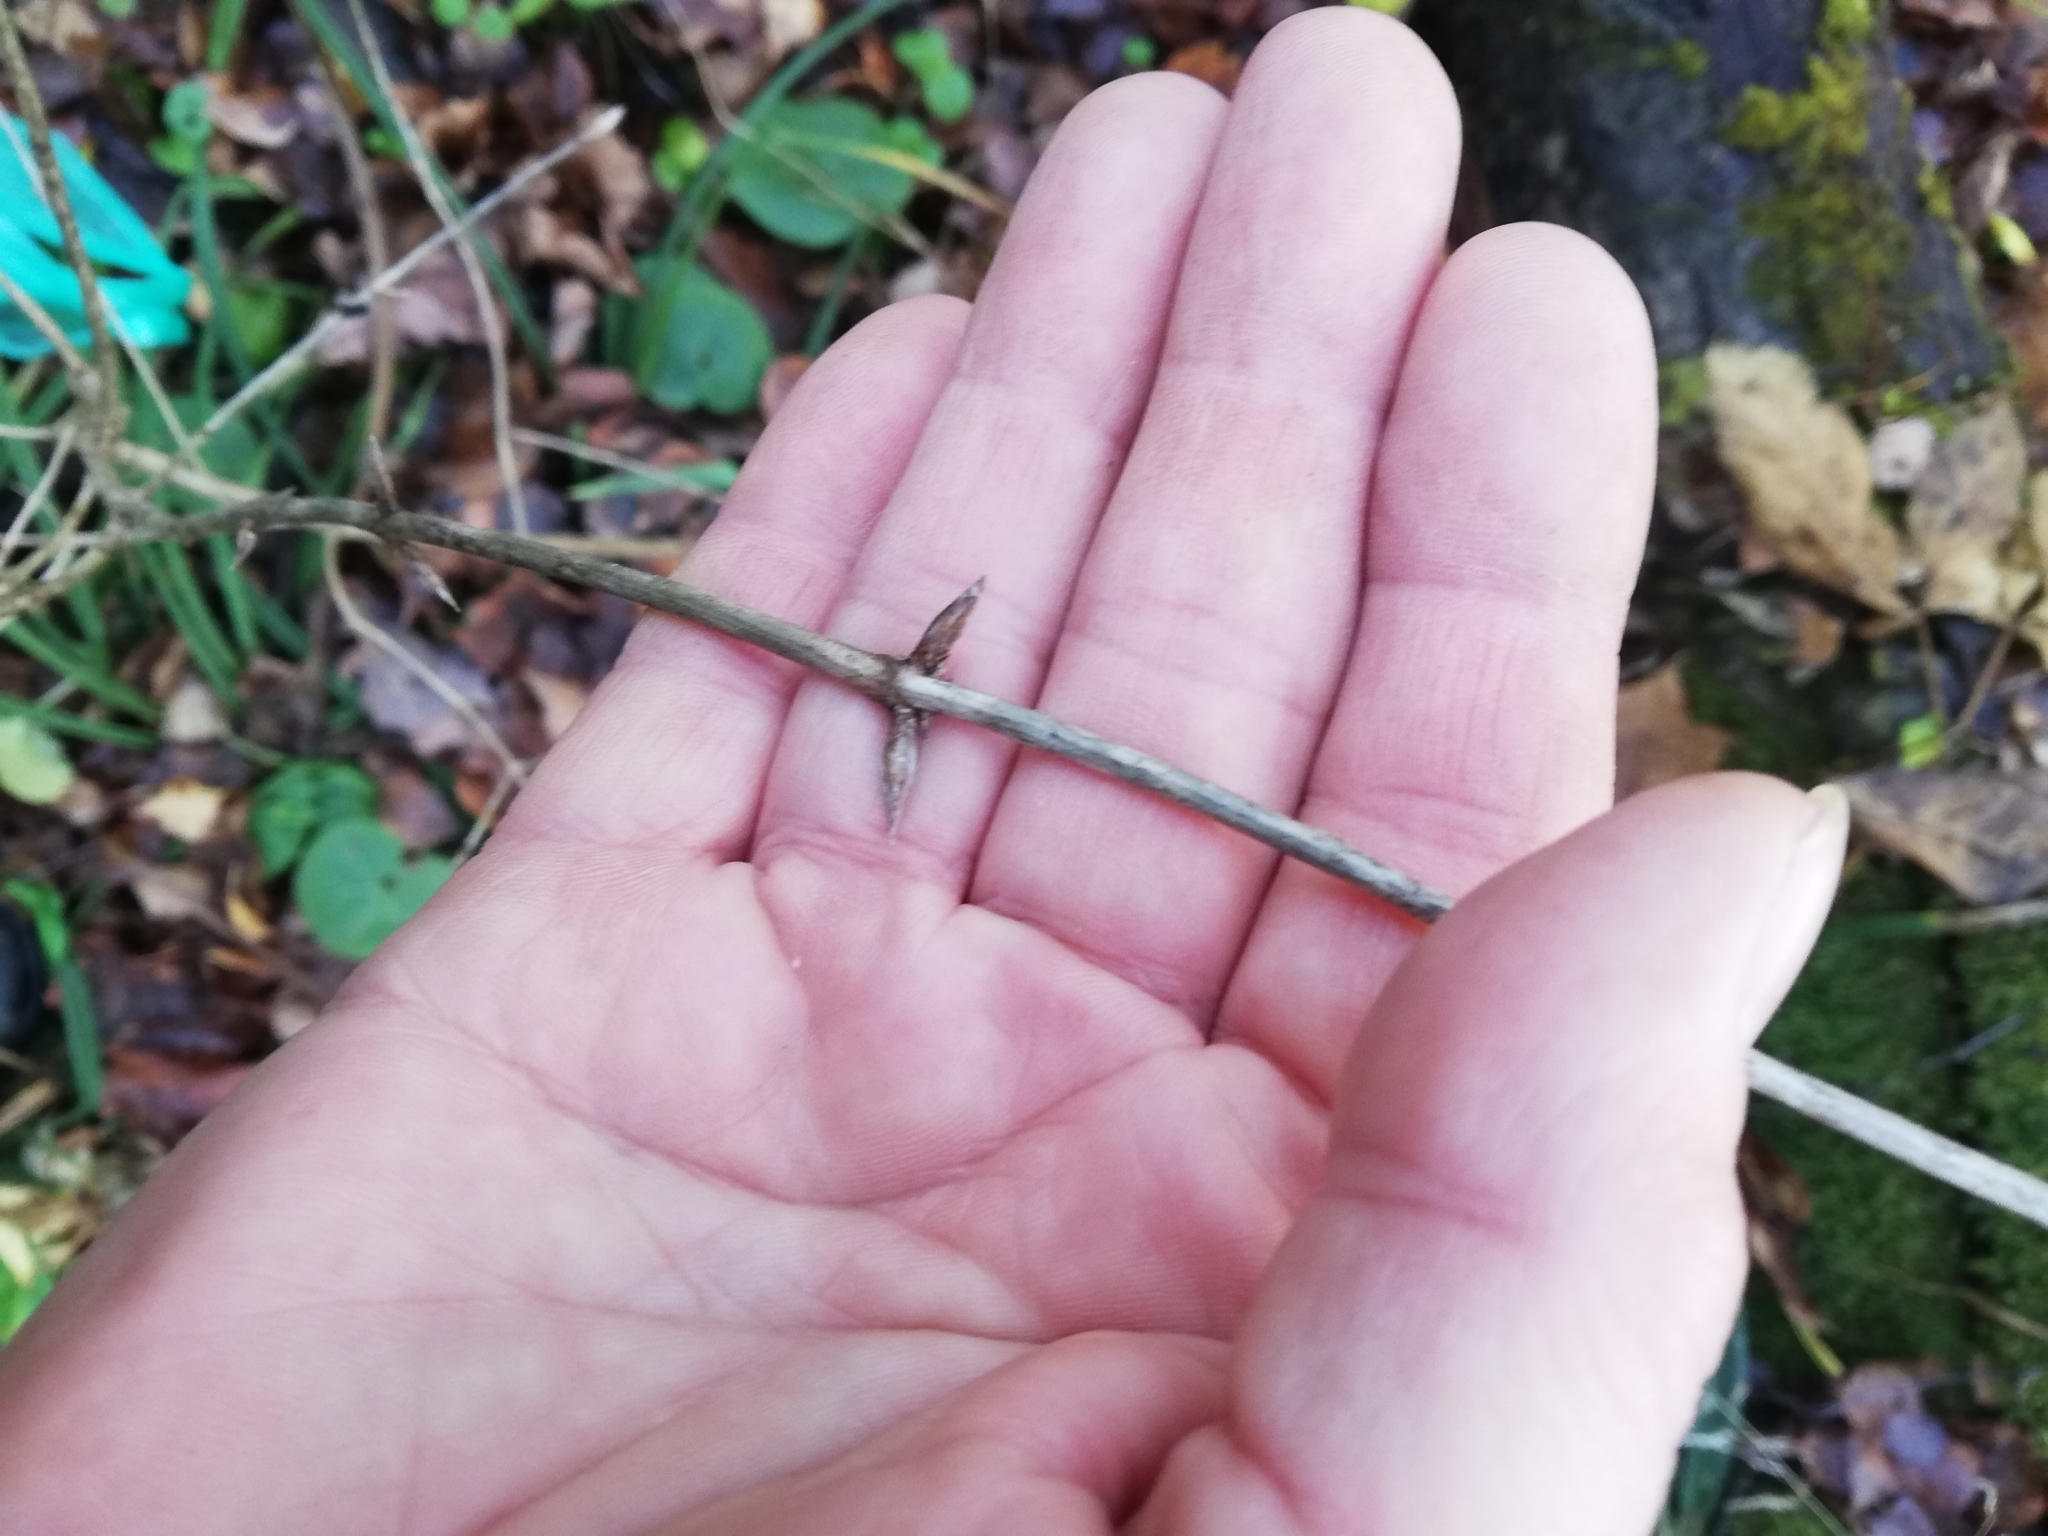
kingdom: Plantae
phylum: Tracheophyta
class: Magnoliopsida
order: Dipsacales
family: Caprifoliaceae
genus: Lonicera
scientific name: Lonicera xylosteum
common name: Fly honeysuckle
